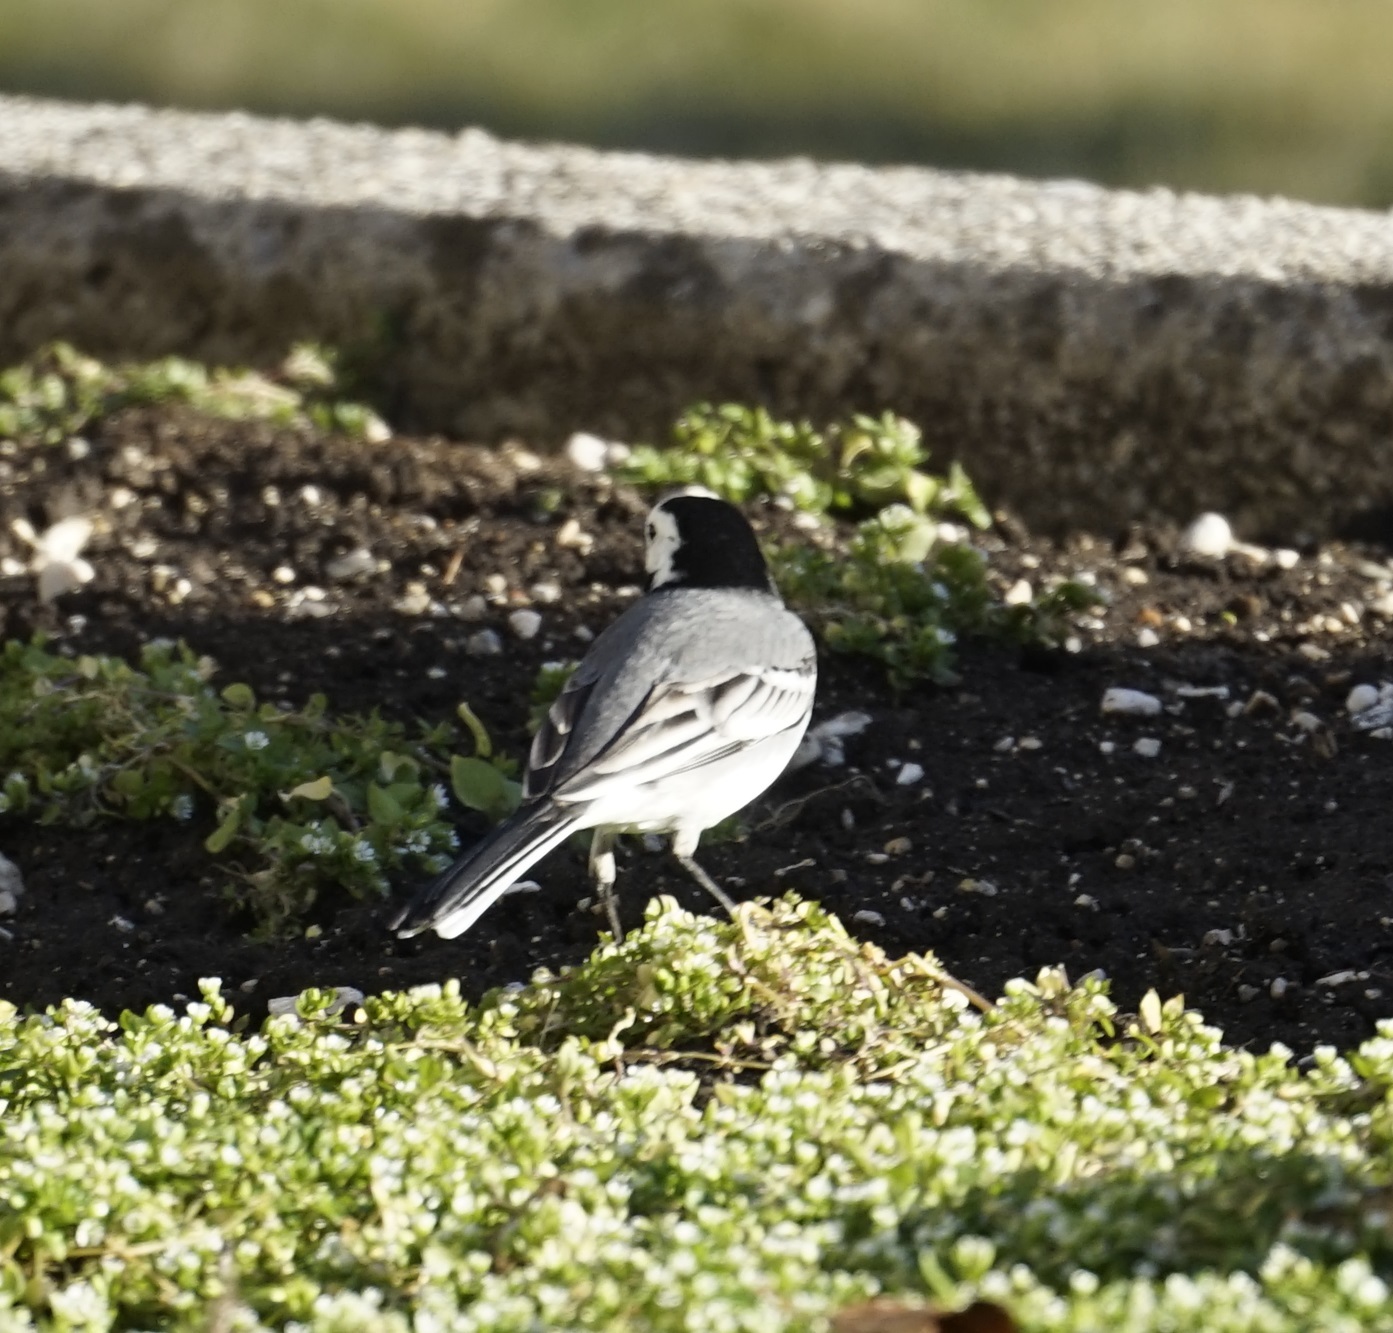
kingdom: Animalia
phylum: Chordata
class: Aves
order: Passeriformes
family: Motacillidae
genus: Motacilla
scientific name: Motacilla alba
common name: White wagtail
